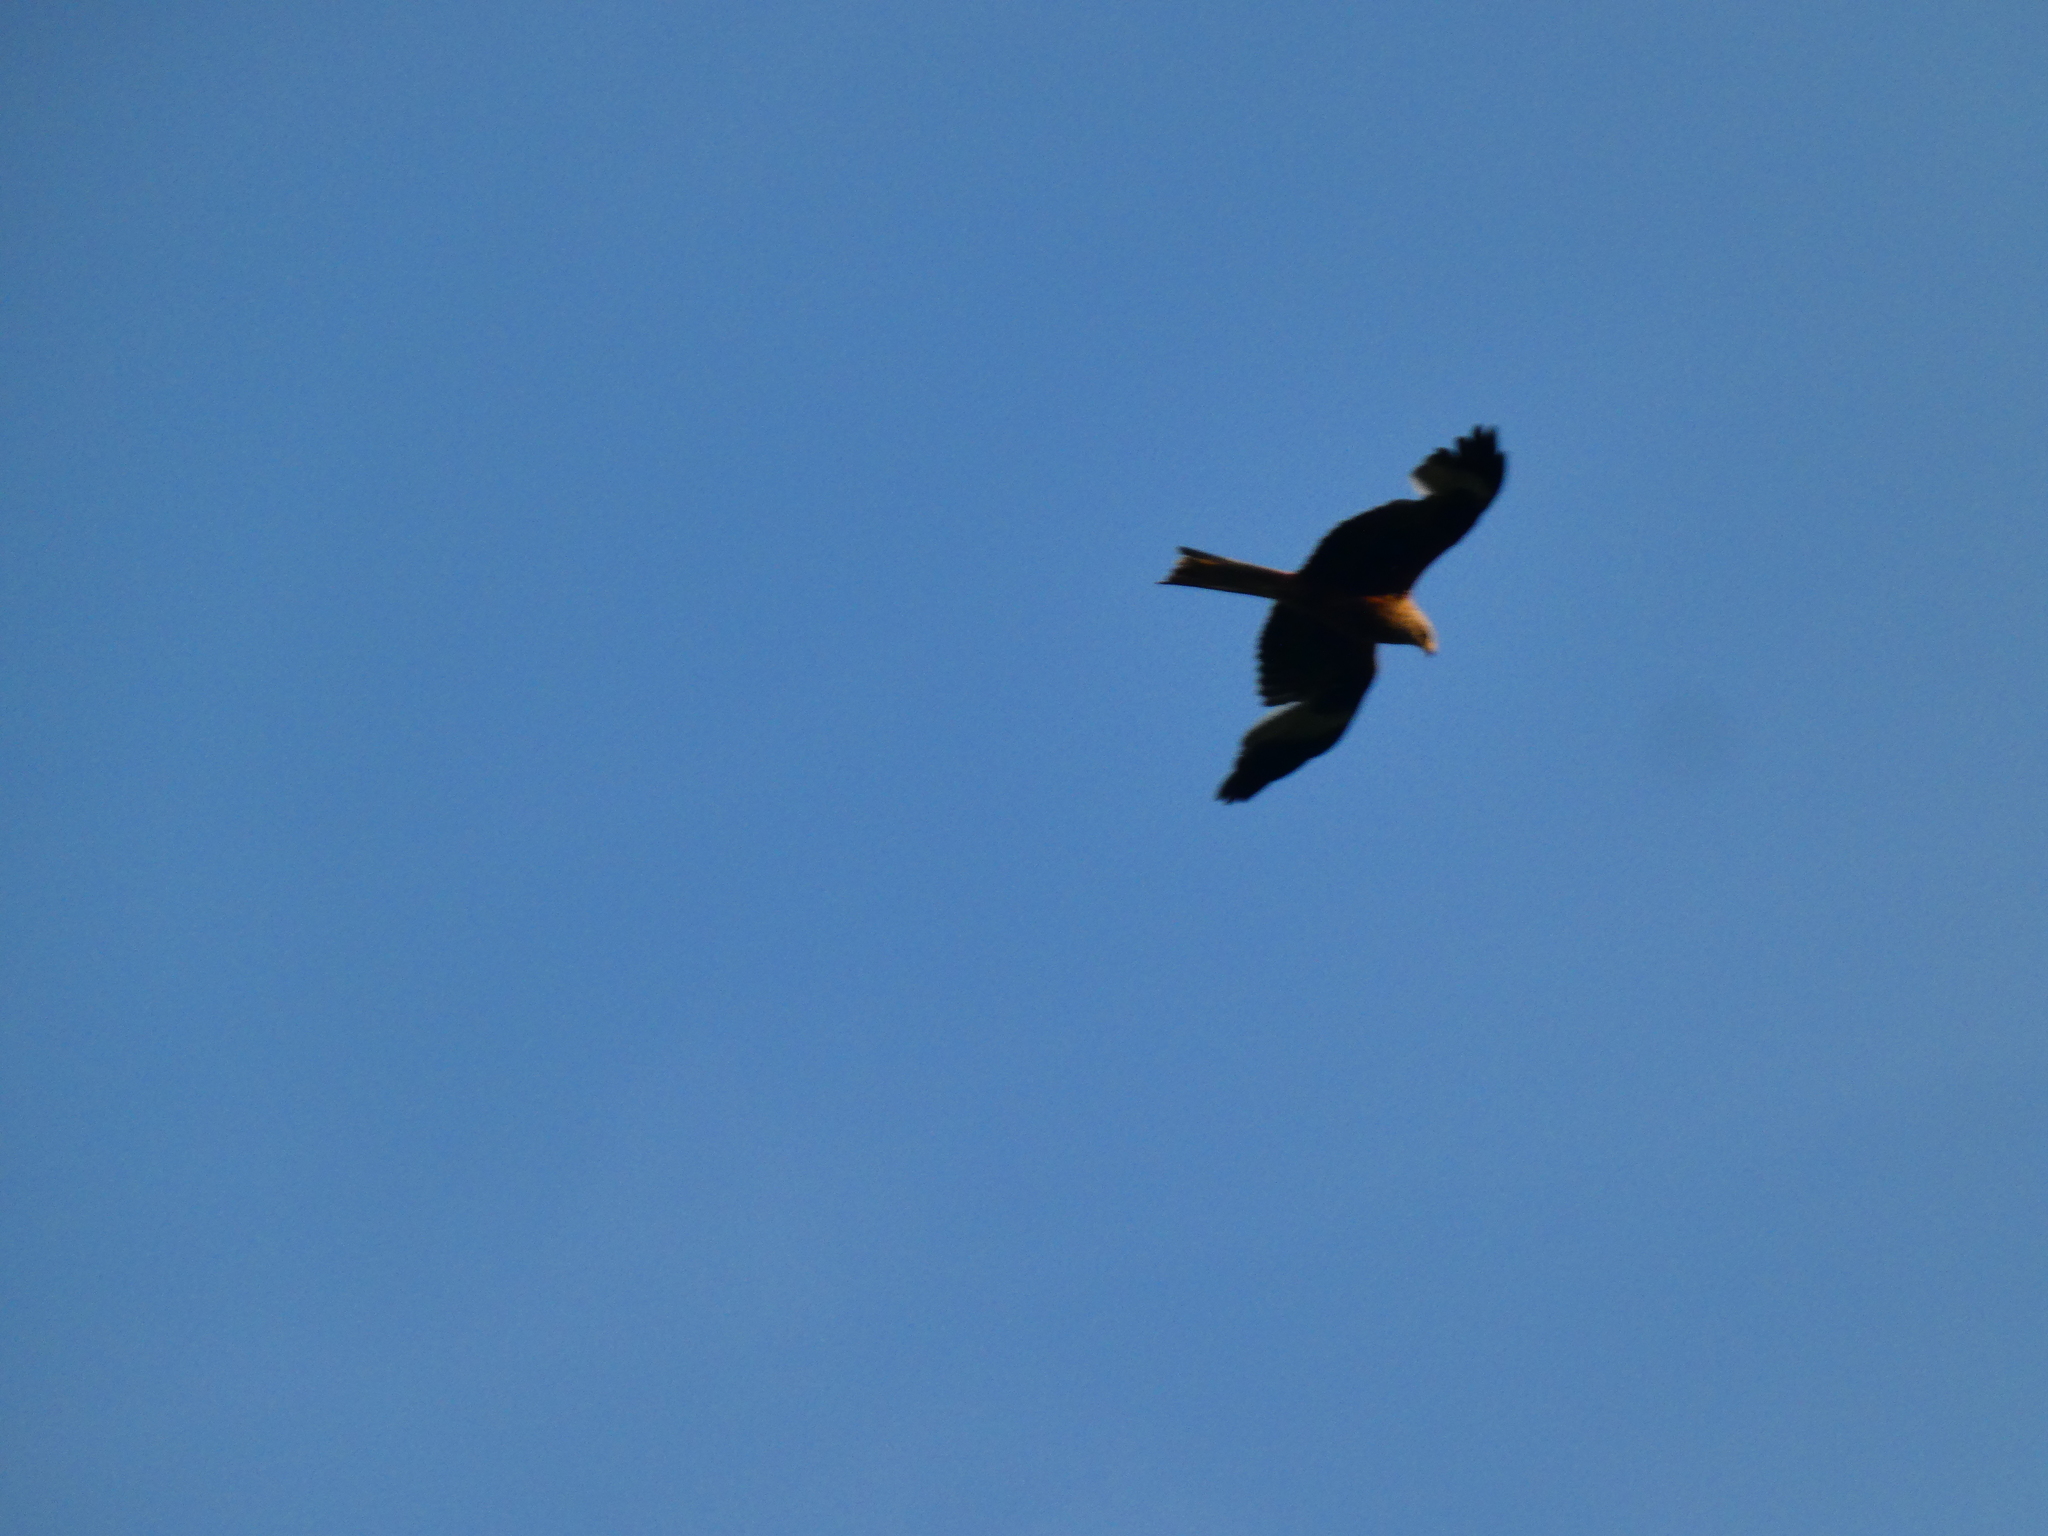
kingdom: Animalia
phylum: Chordata
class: Aves
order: Accipitriformes
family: Accipitridae
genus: Milvus
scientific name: Milvus milvus
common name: Red kite
